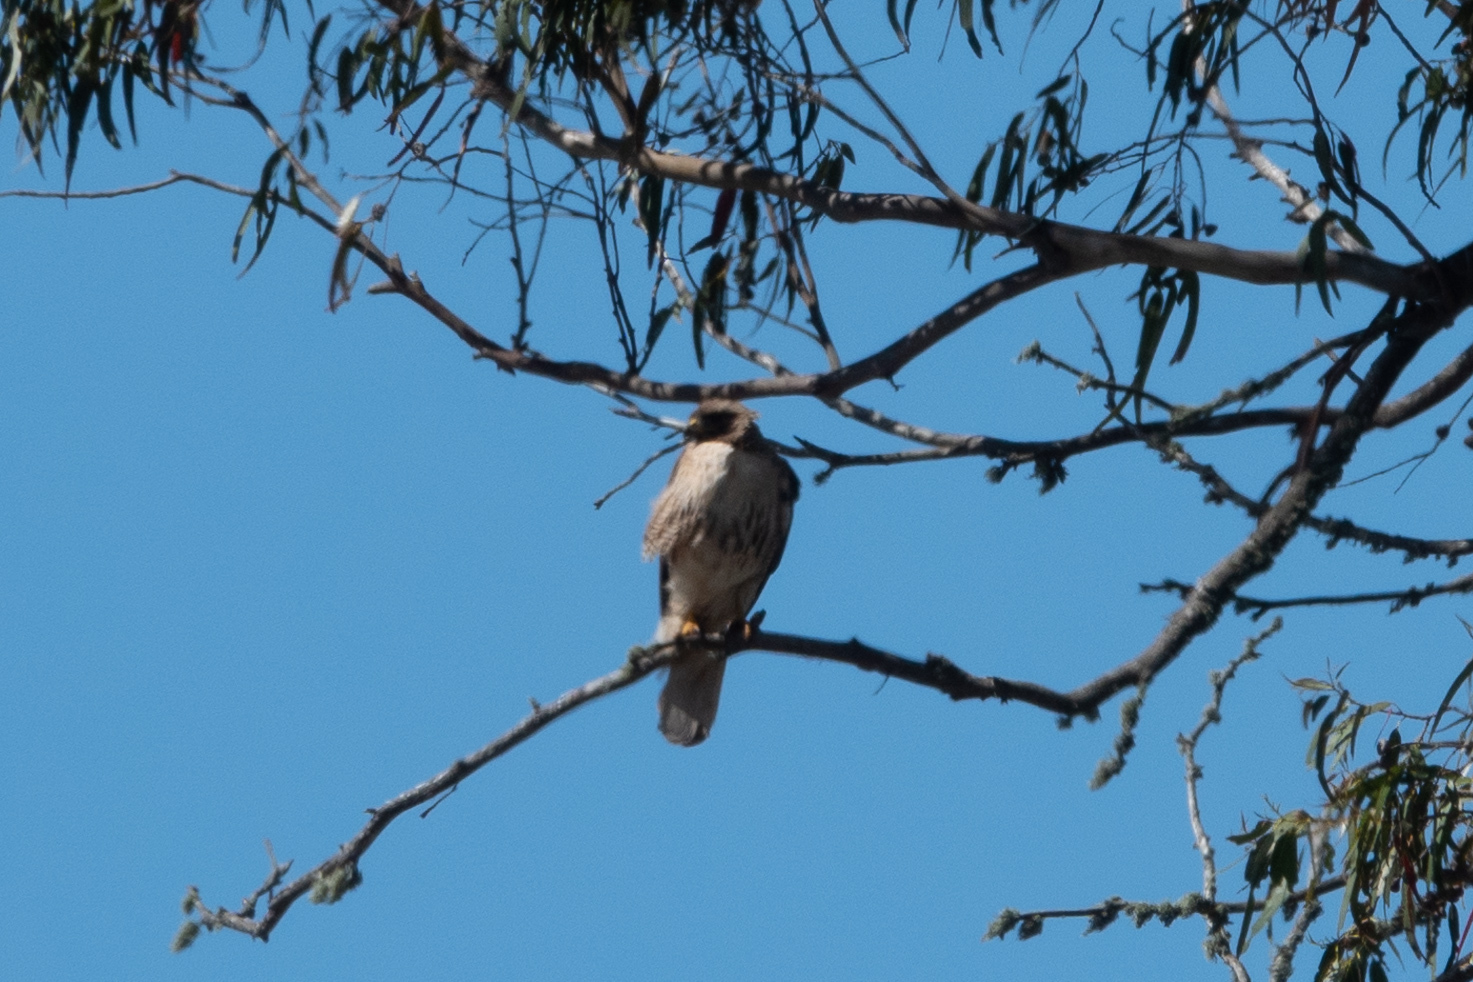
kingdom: Animalia
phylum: Chordata
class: Aves
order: Accipitriformes
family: Accipitridae
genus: Buteo
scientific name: Buteo jamaicensis
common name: Red-tailed hawk
